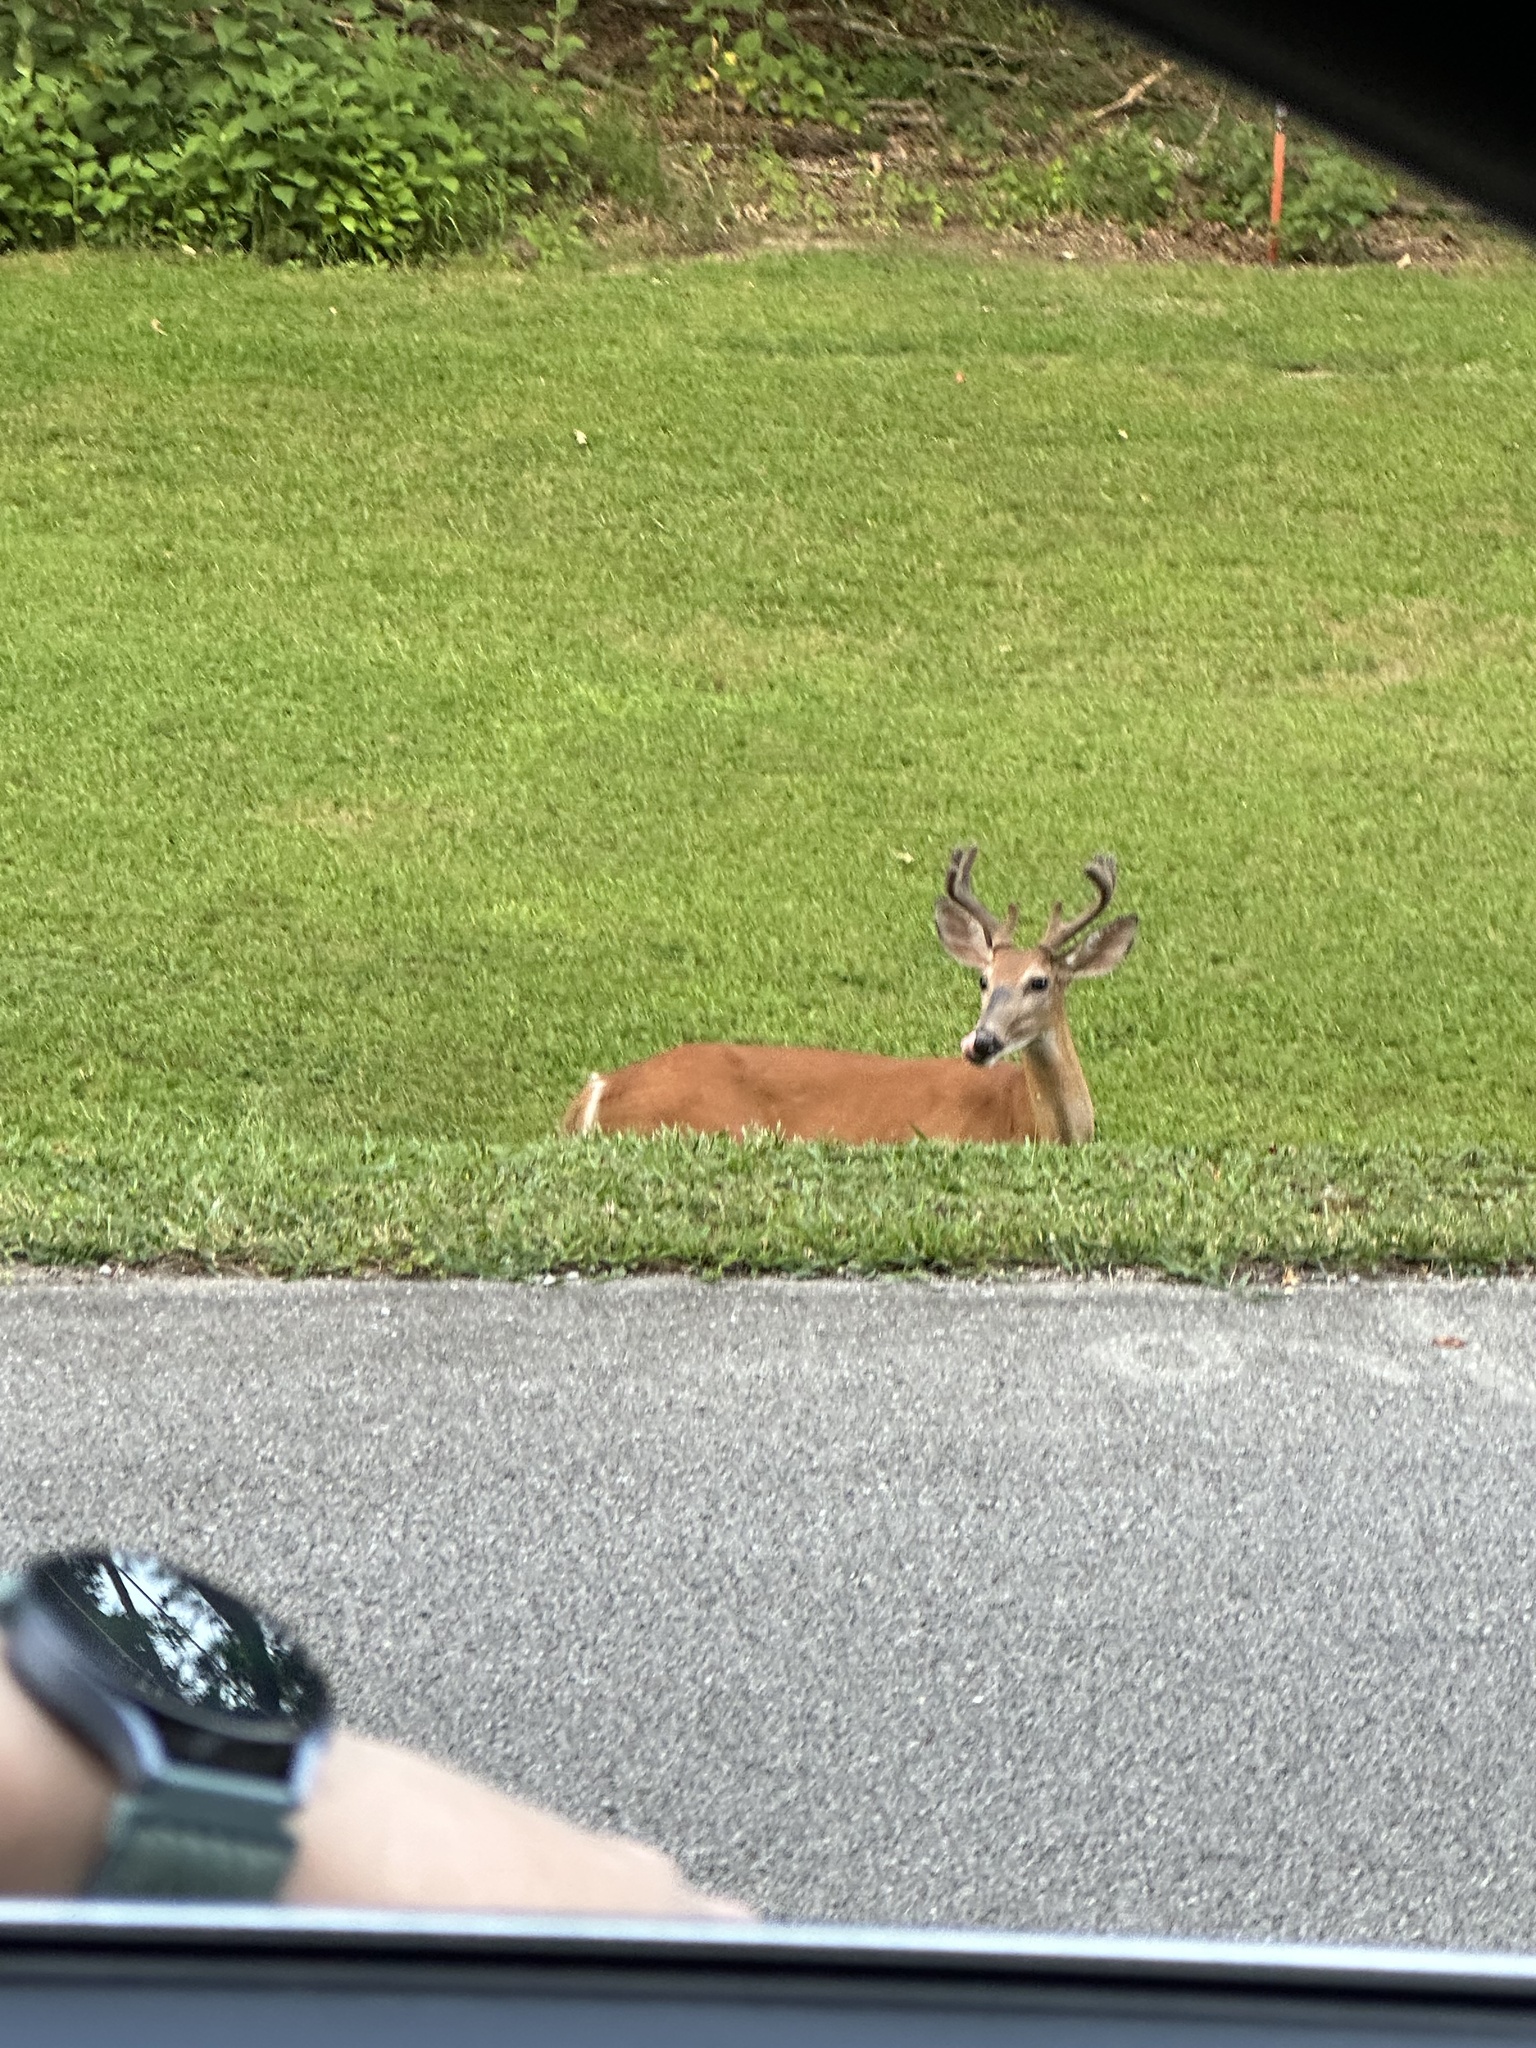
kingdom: Animalia
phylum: Chordata
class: Mammalia
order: Artiodactyla
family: Cervidae
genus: Odocoileus
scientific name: Odocoileus virginianus
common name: White-tailed deer
